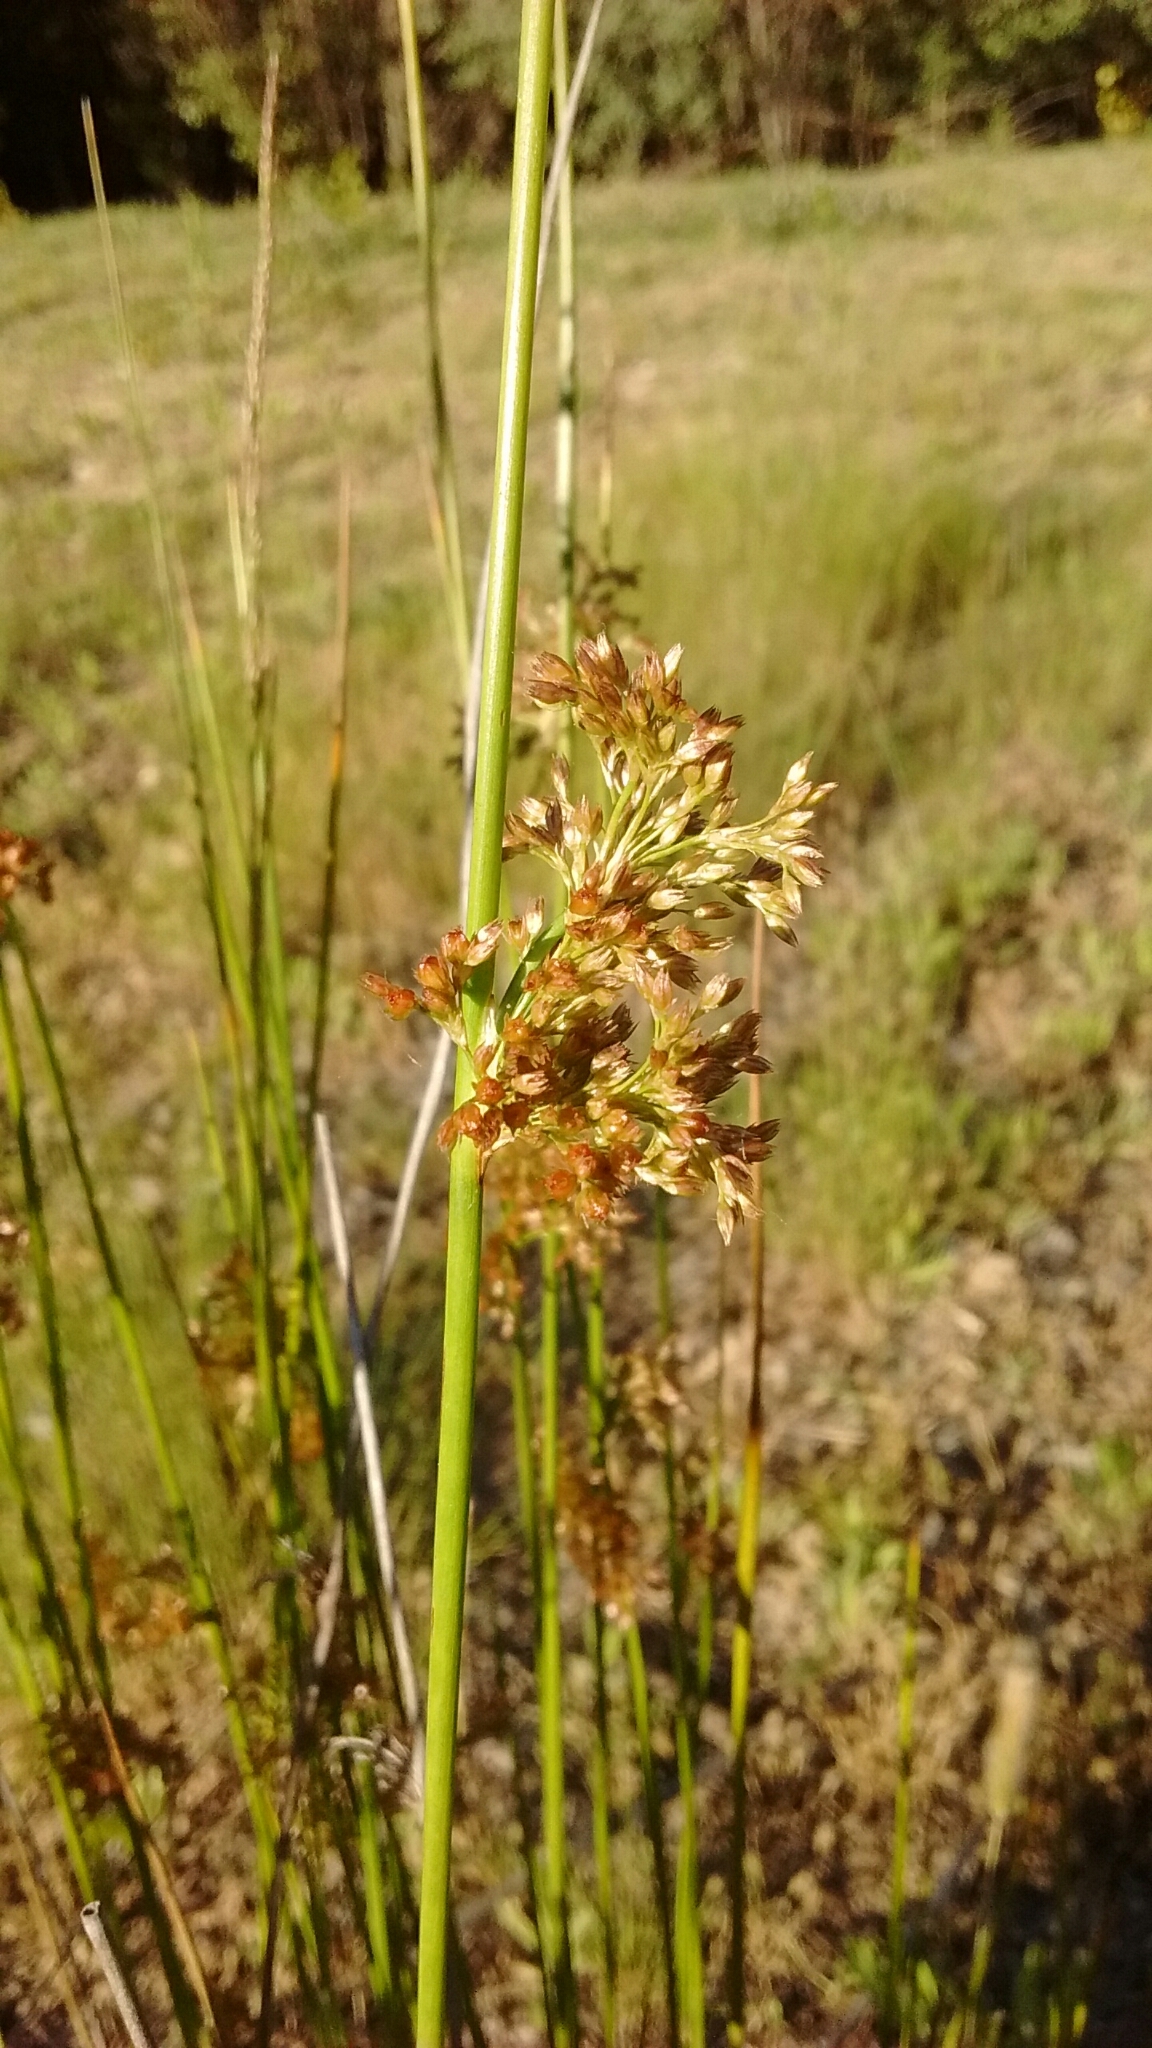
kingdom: Plantae
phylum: Tracheophyta
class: Liliopsida
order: Poales
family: Juncaceae
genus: Juncus
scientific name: Juncus effusus
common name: Soft rush
